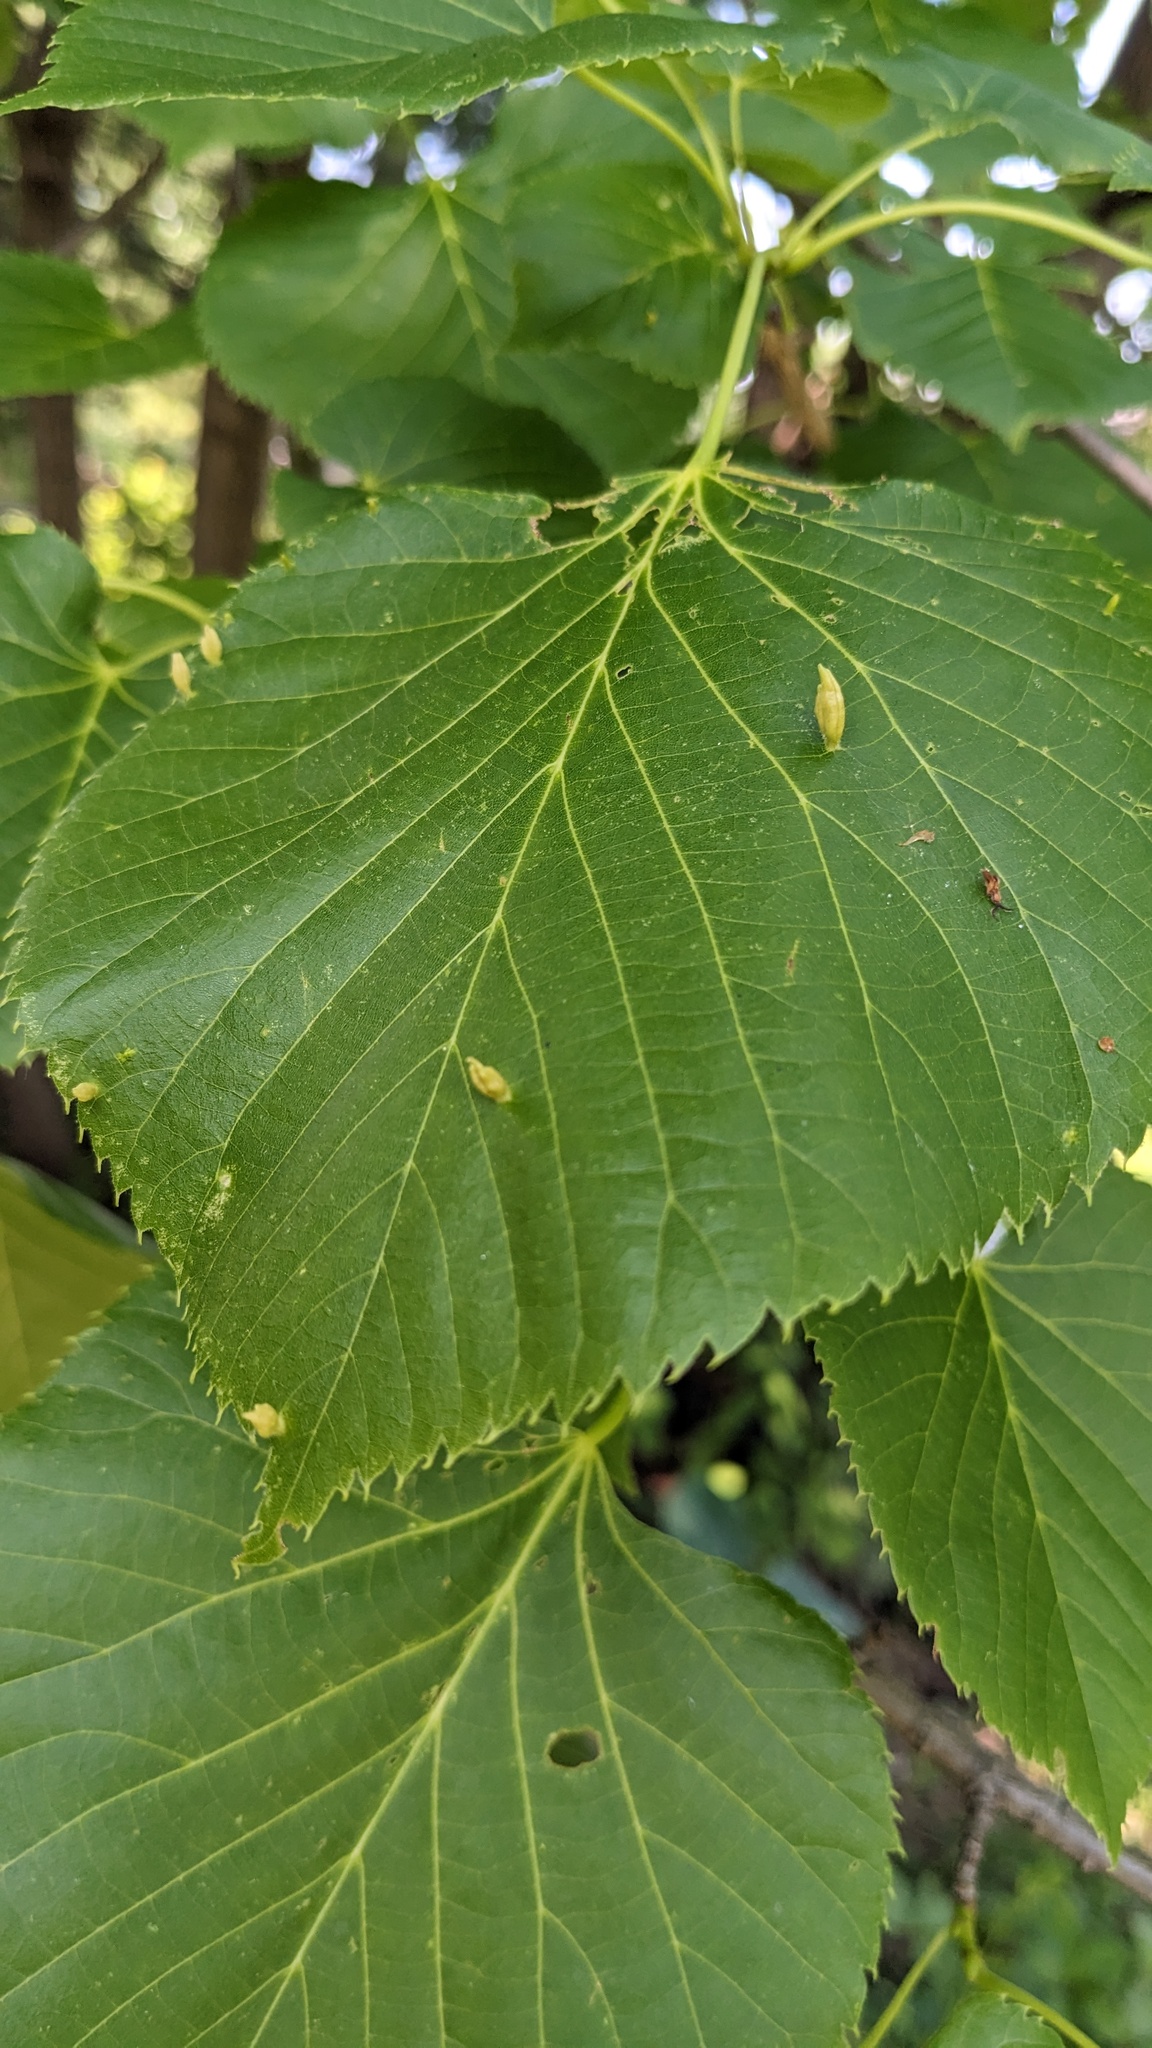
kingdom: Animalia
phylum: Arthropoda
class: Arachnida
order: Trombidiformes
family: Phytoptidae
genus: Phytoptus
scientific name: Phytoptus abnormis
